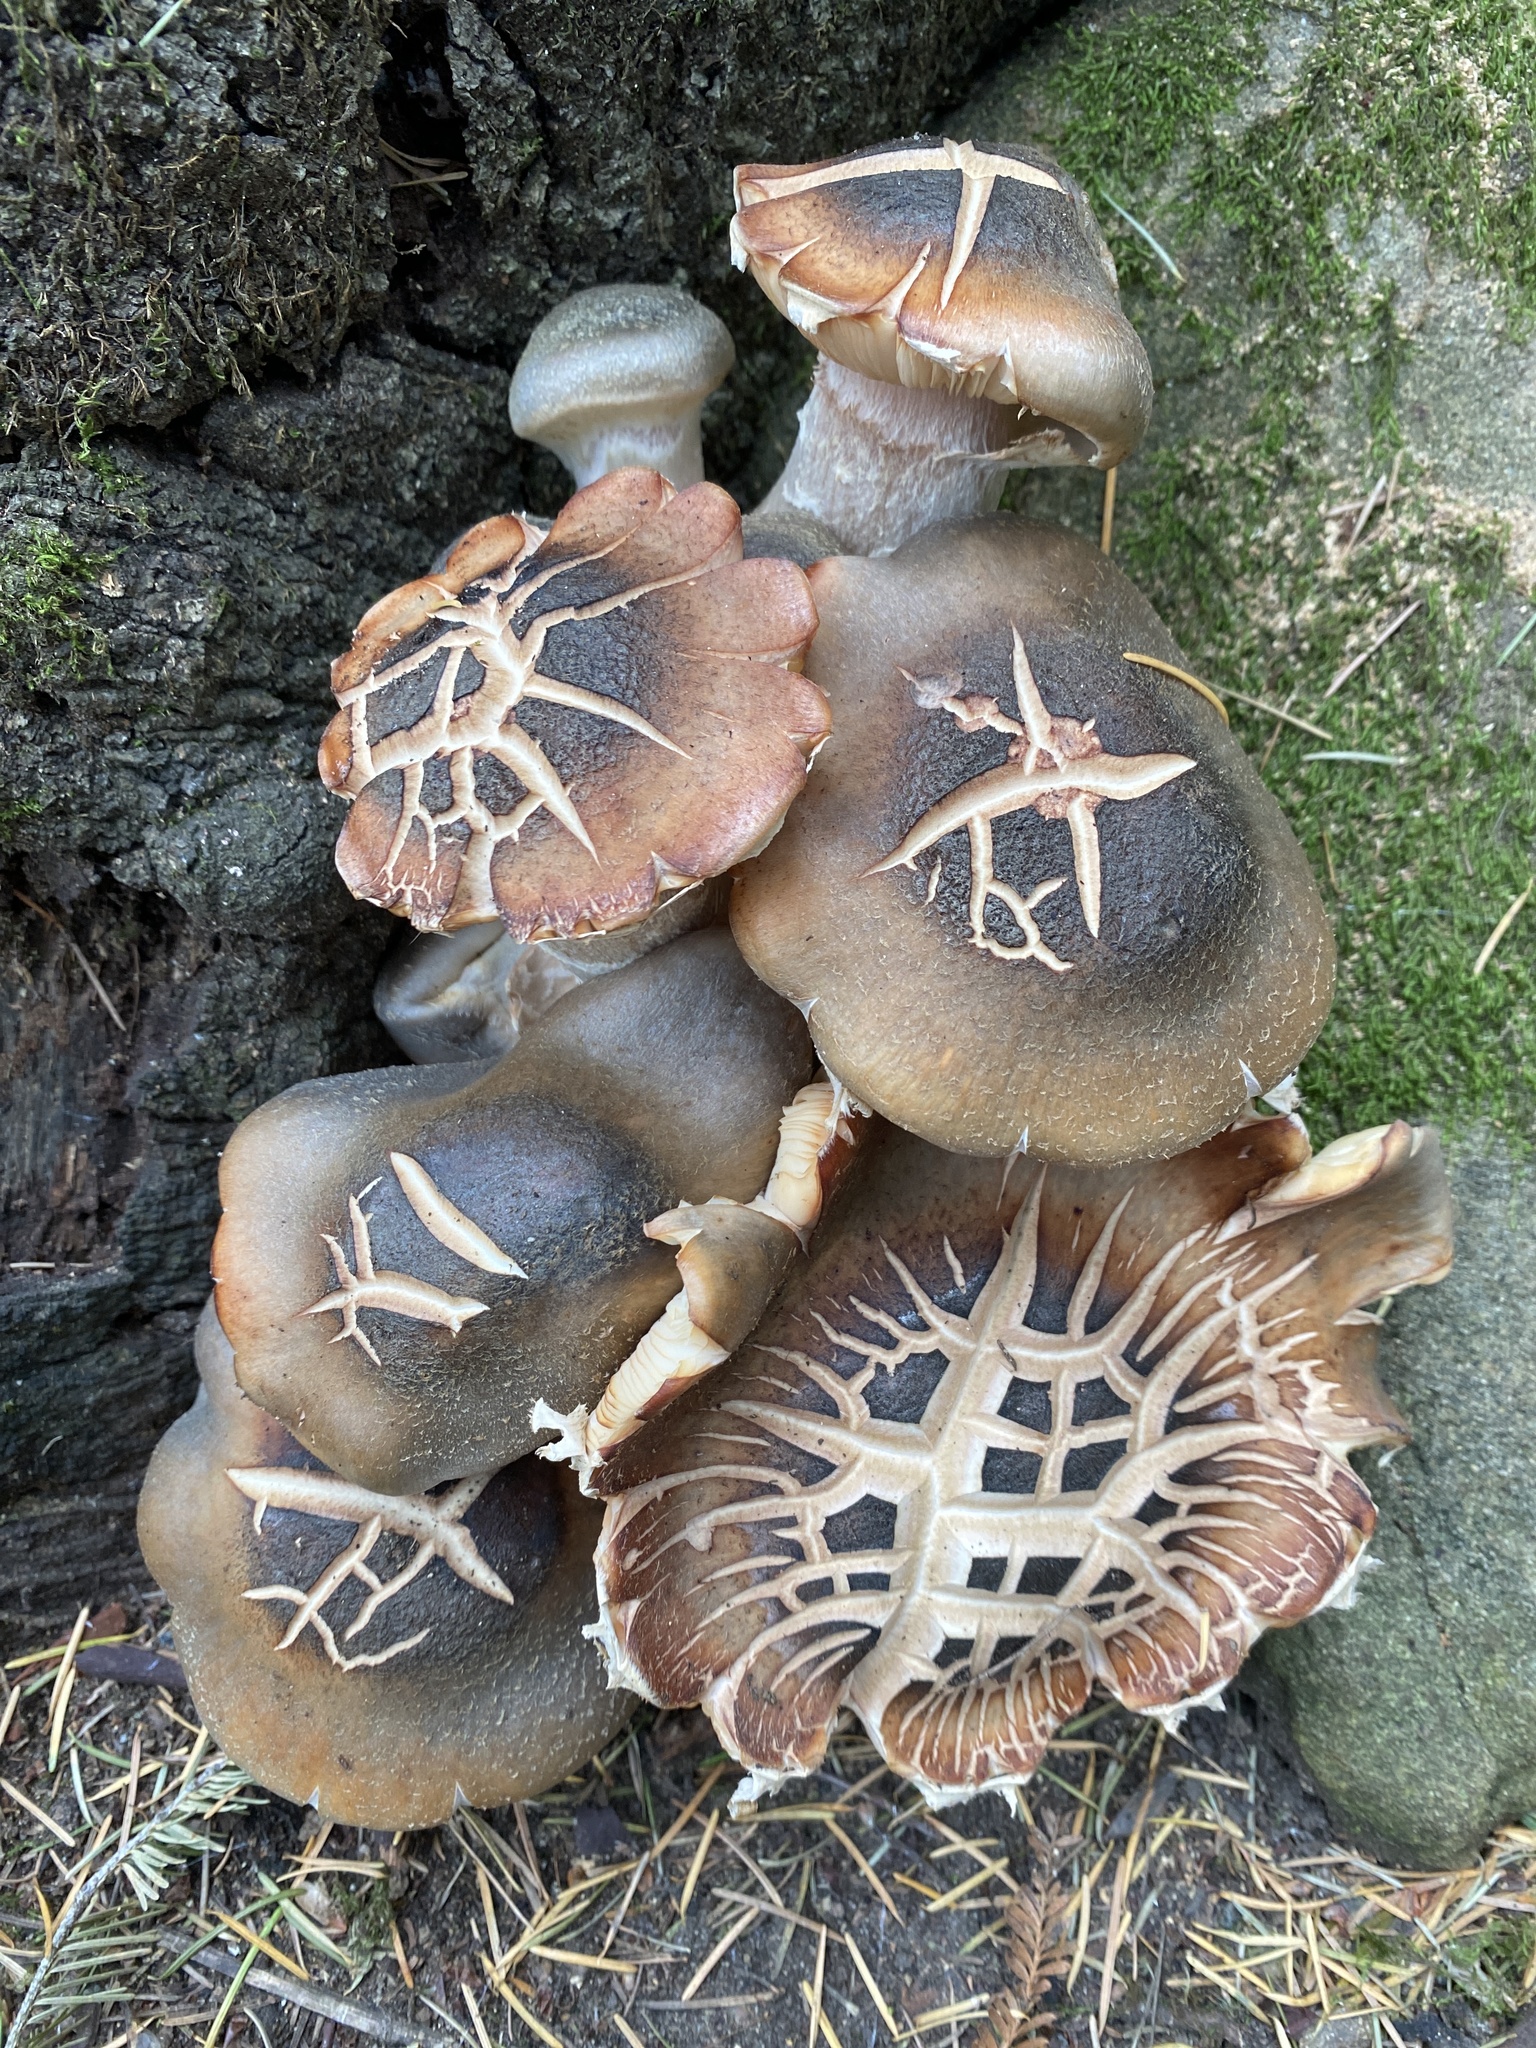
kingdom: Fungi
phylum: Basidiomycota
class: Agaricomycetes
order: Agaricales
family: Physalacriaceae
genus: Armillaria
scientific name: Armillaria mellea
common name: Honey fungus
